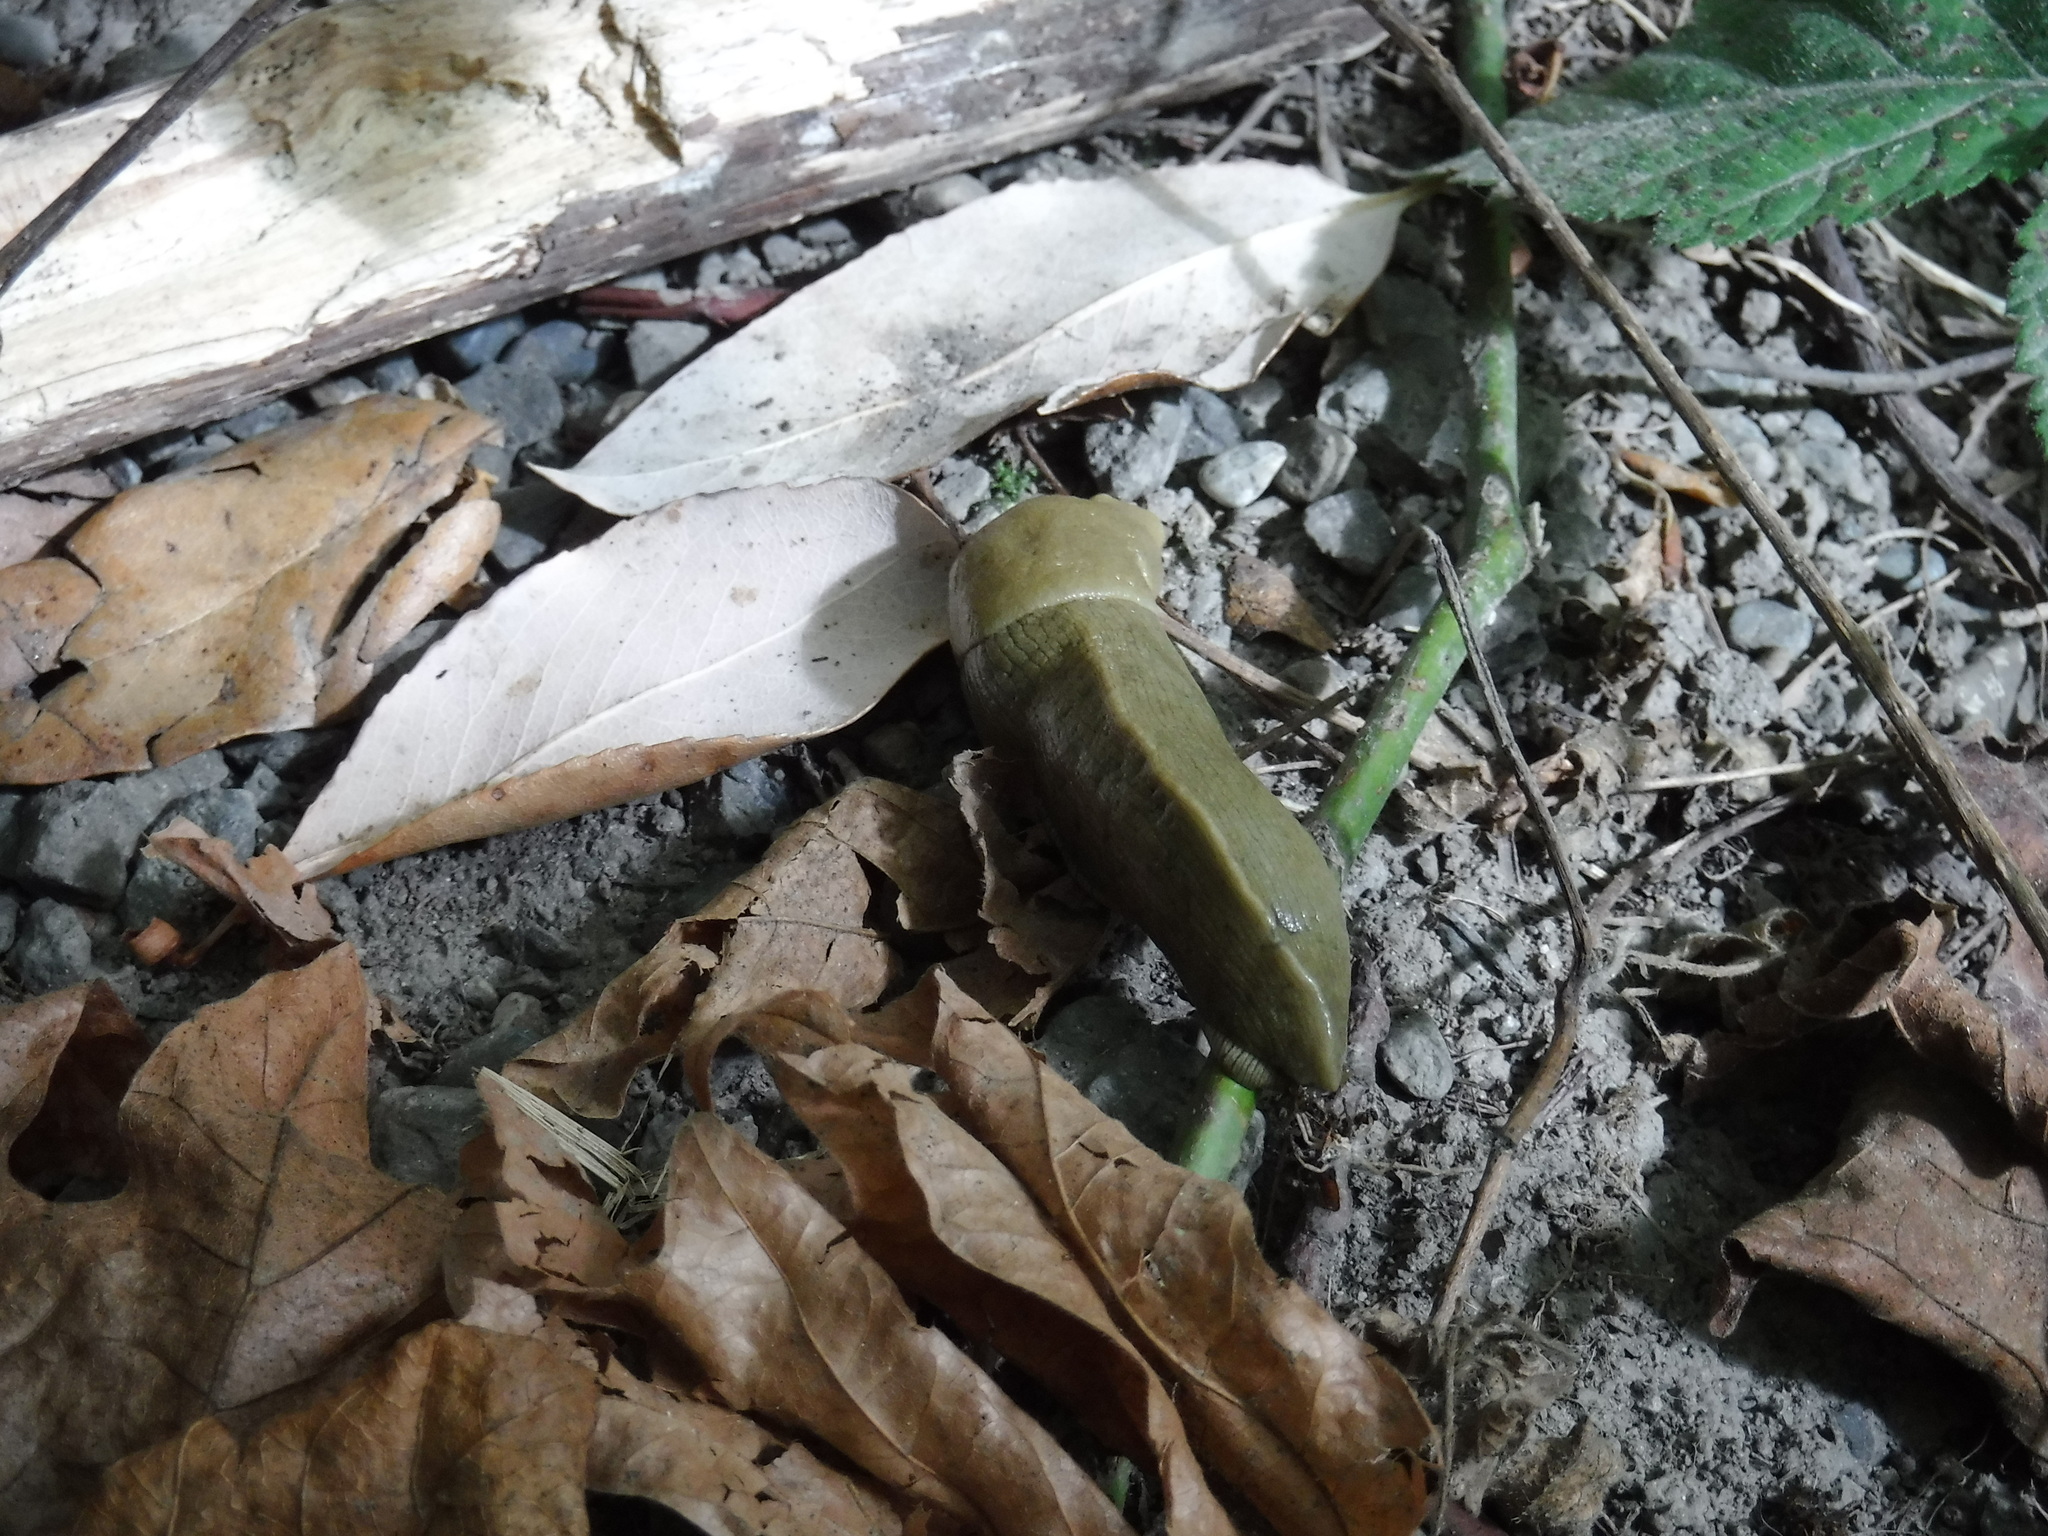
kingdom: Animalia
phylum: Mollusca
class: Gastropoda
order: Stylommatophora
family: Ariolimacidae
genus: Ariolimax
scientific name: Ariolimax columbianus
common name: Pacific banana slug
